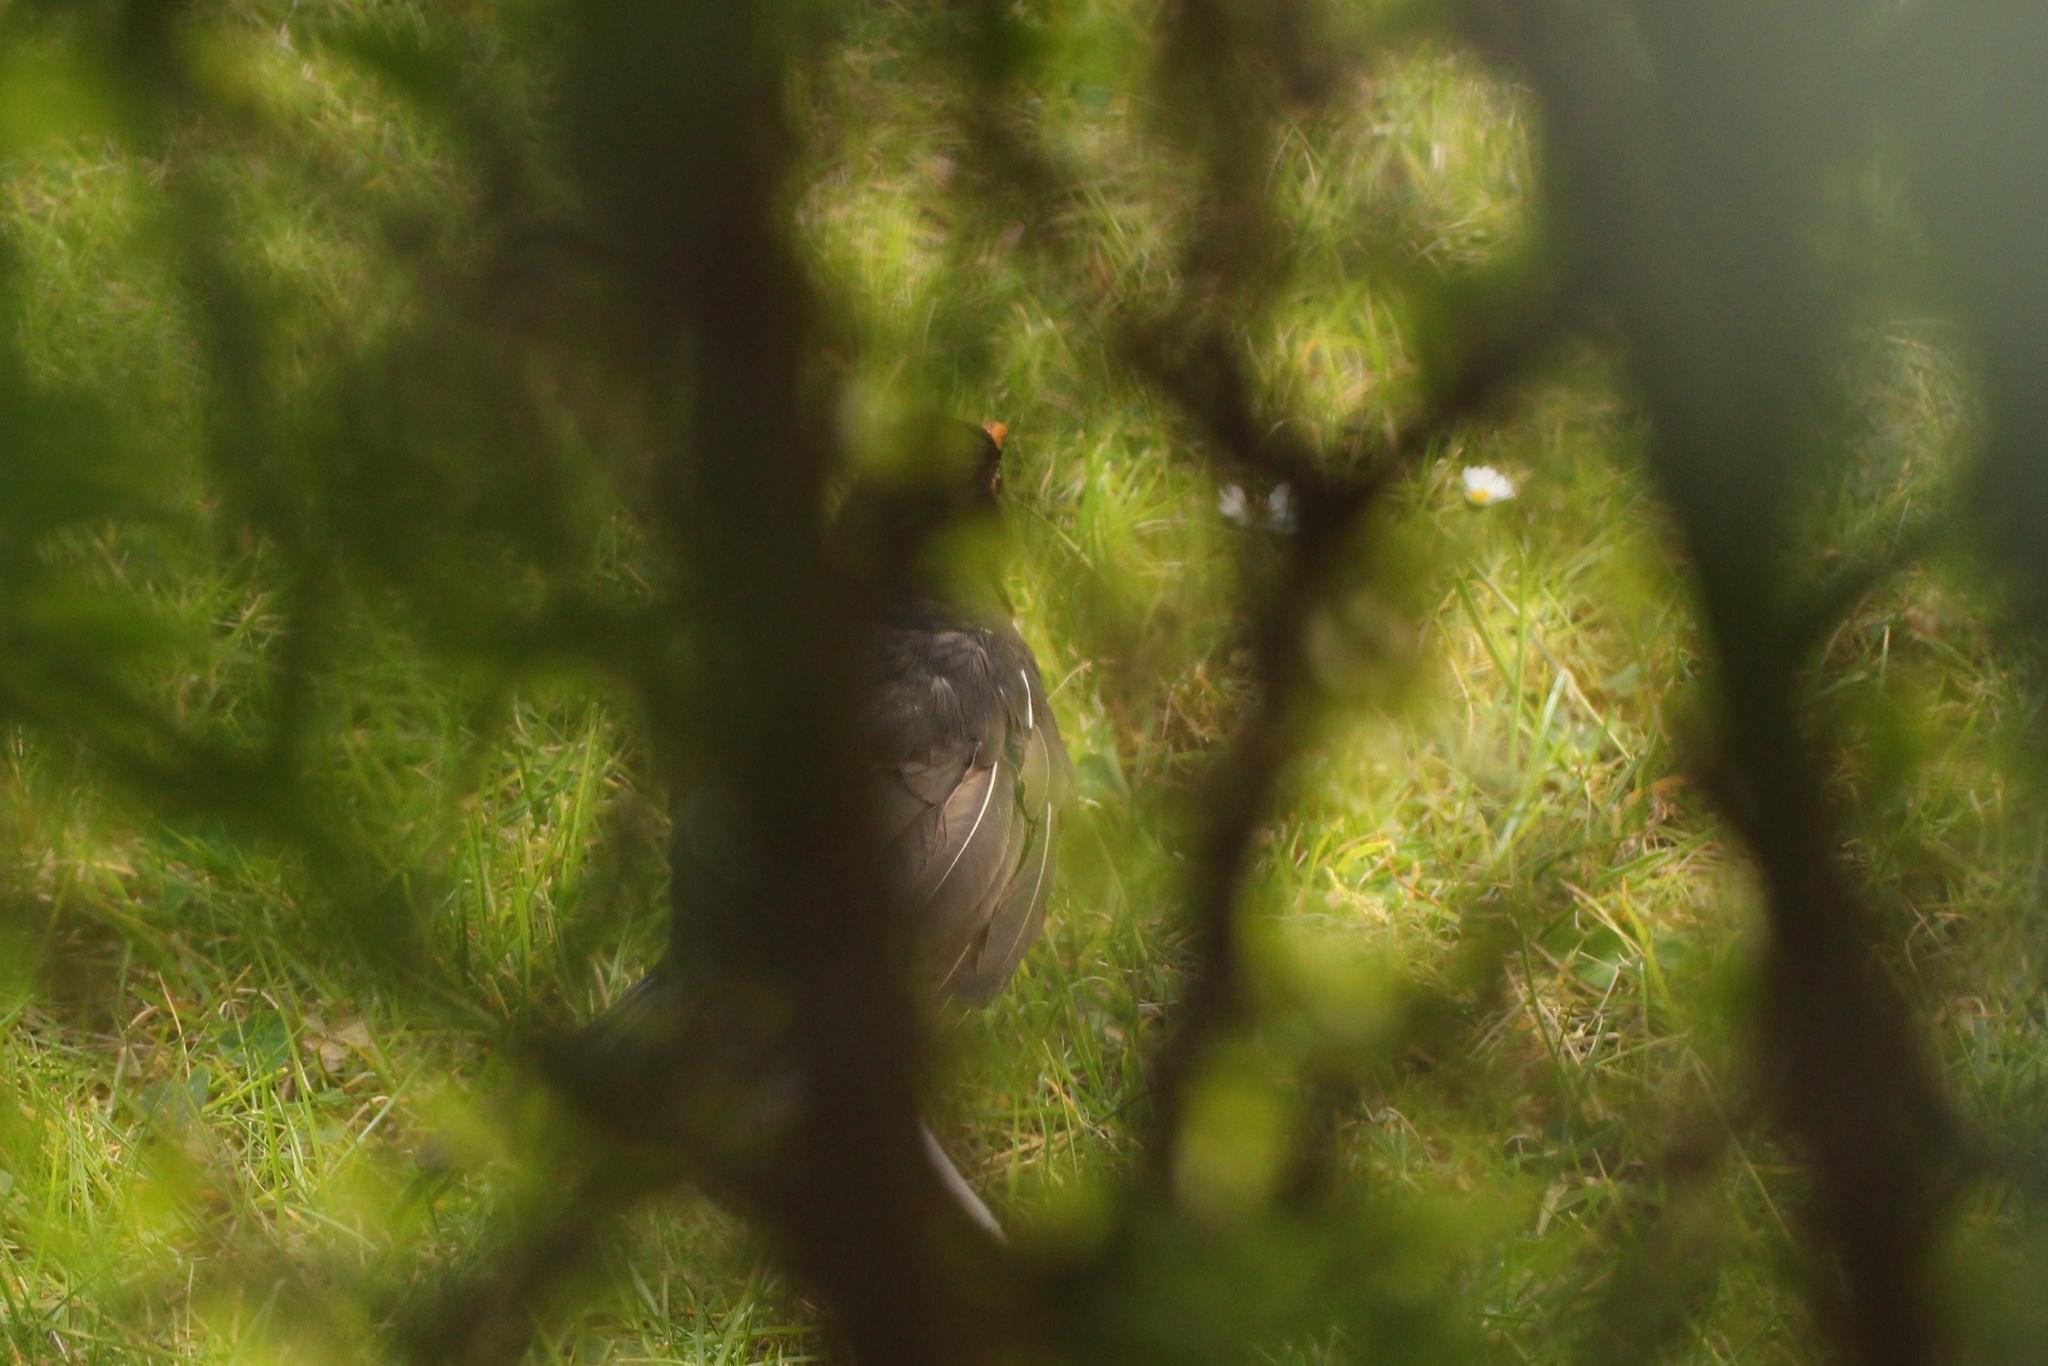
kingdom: Animalia
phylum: Chordata
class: Aves
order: Passeriformes
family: Turdidae
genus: Turdus
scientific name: Turdus merula
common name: Common blackbird
